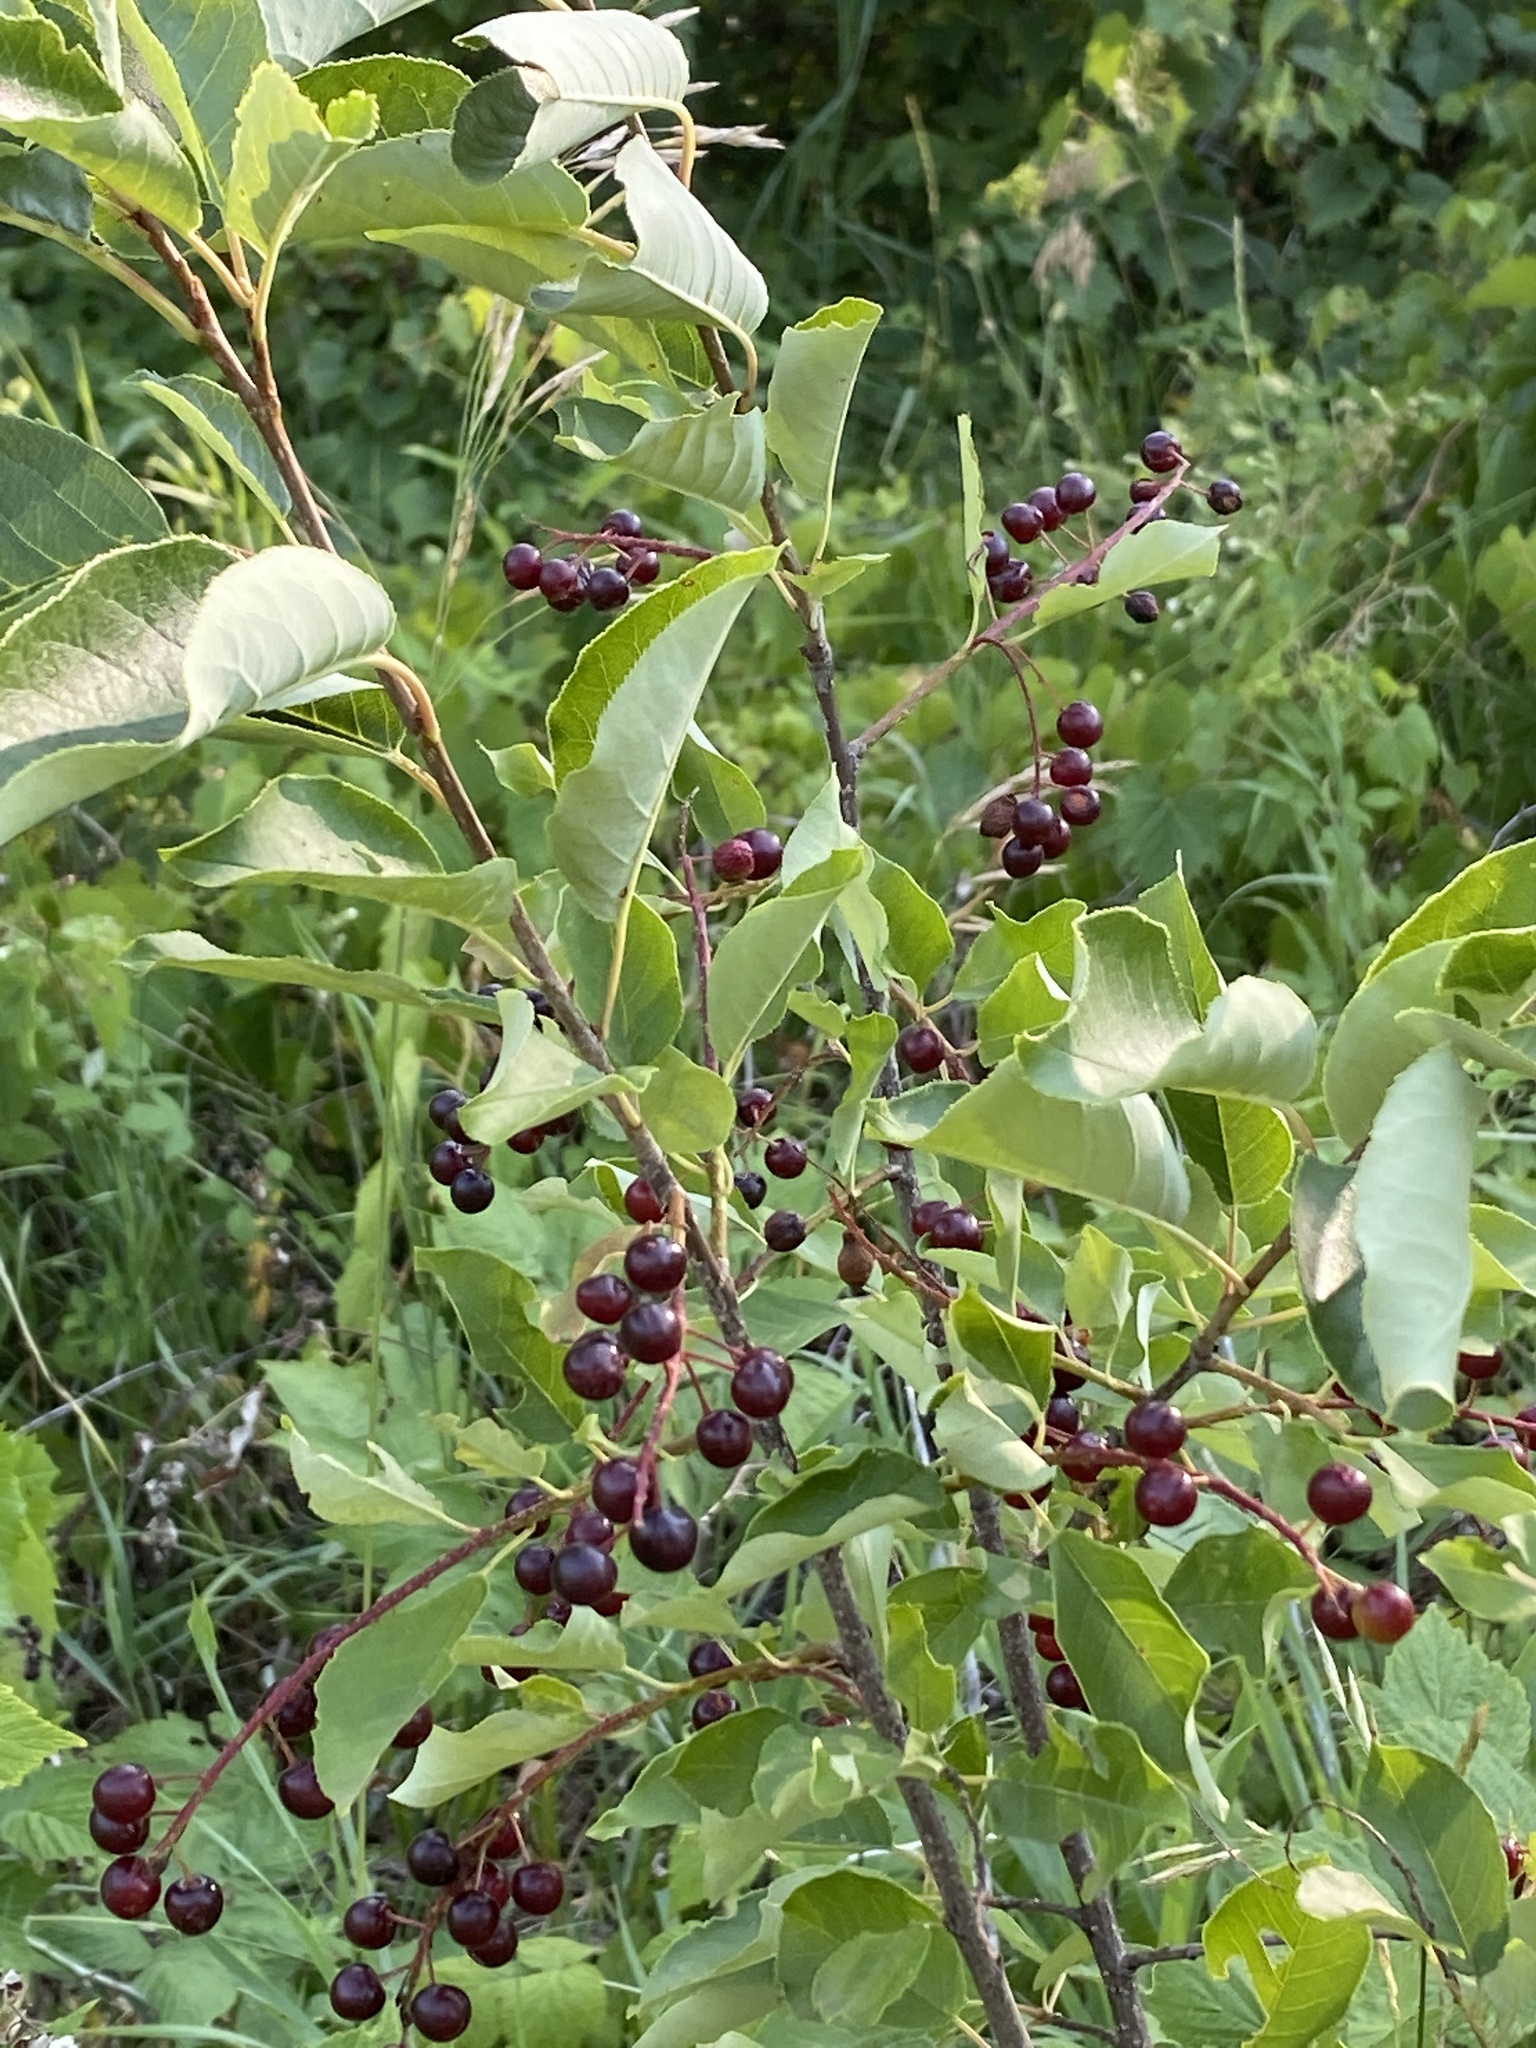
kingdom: Plantae
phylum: Tracheophyta
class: Magnoliopsida
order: Rosales
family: Rosaceae
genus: Prunus
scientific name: Prunus virginiana
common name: Chokecherry
